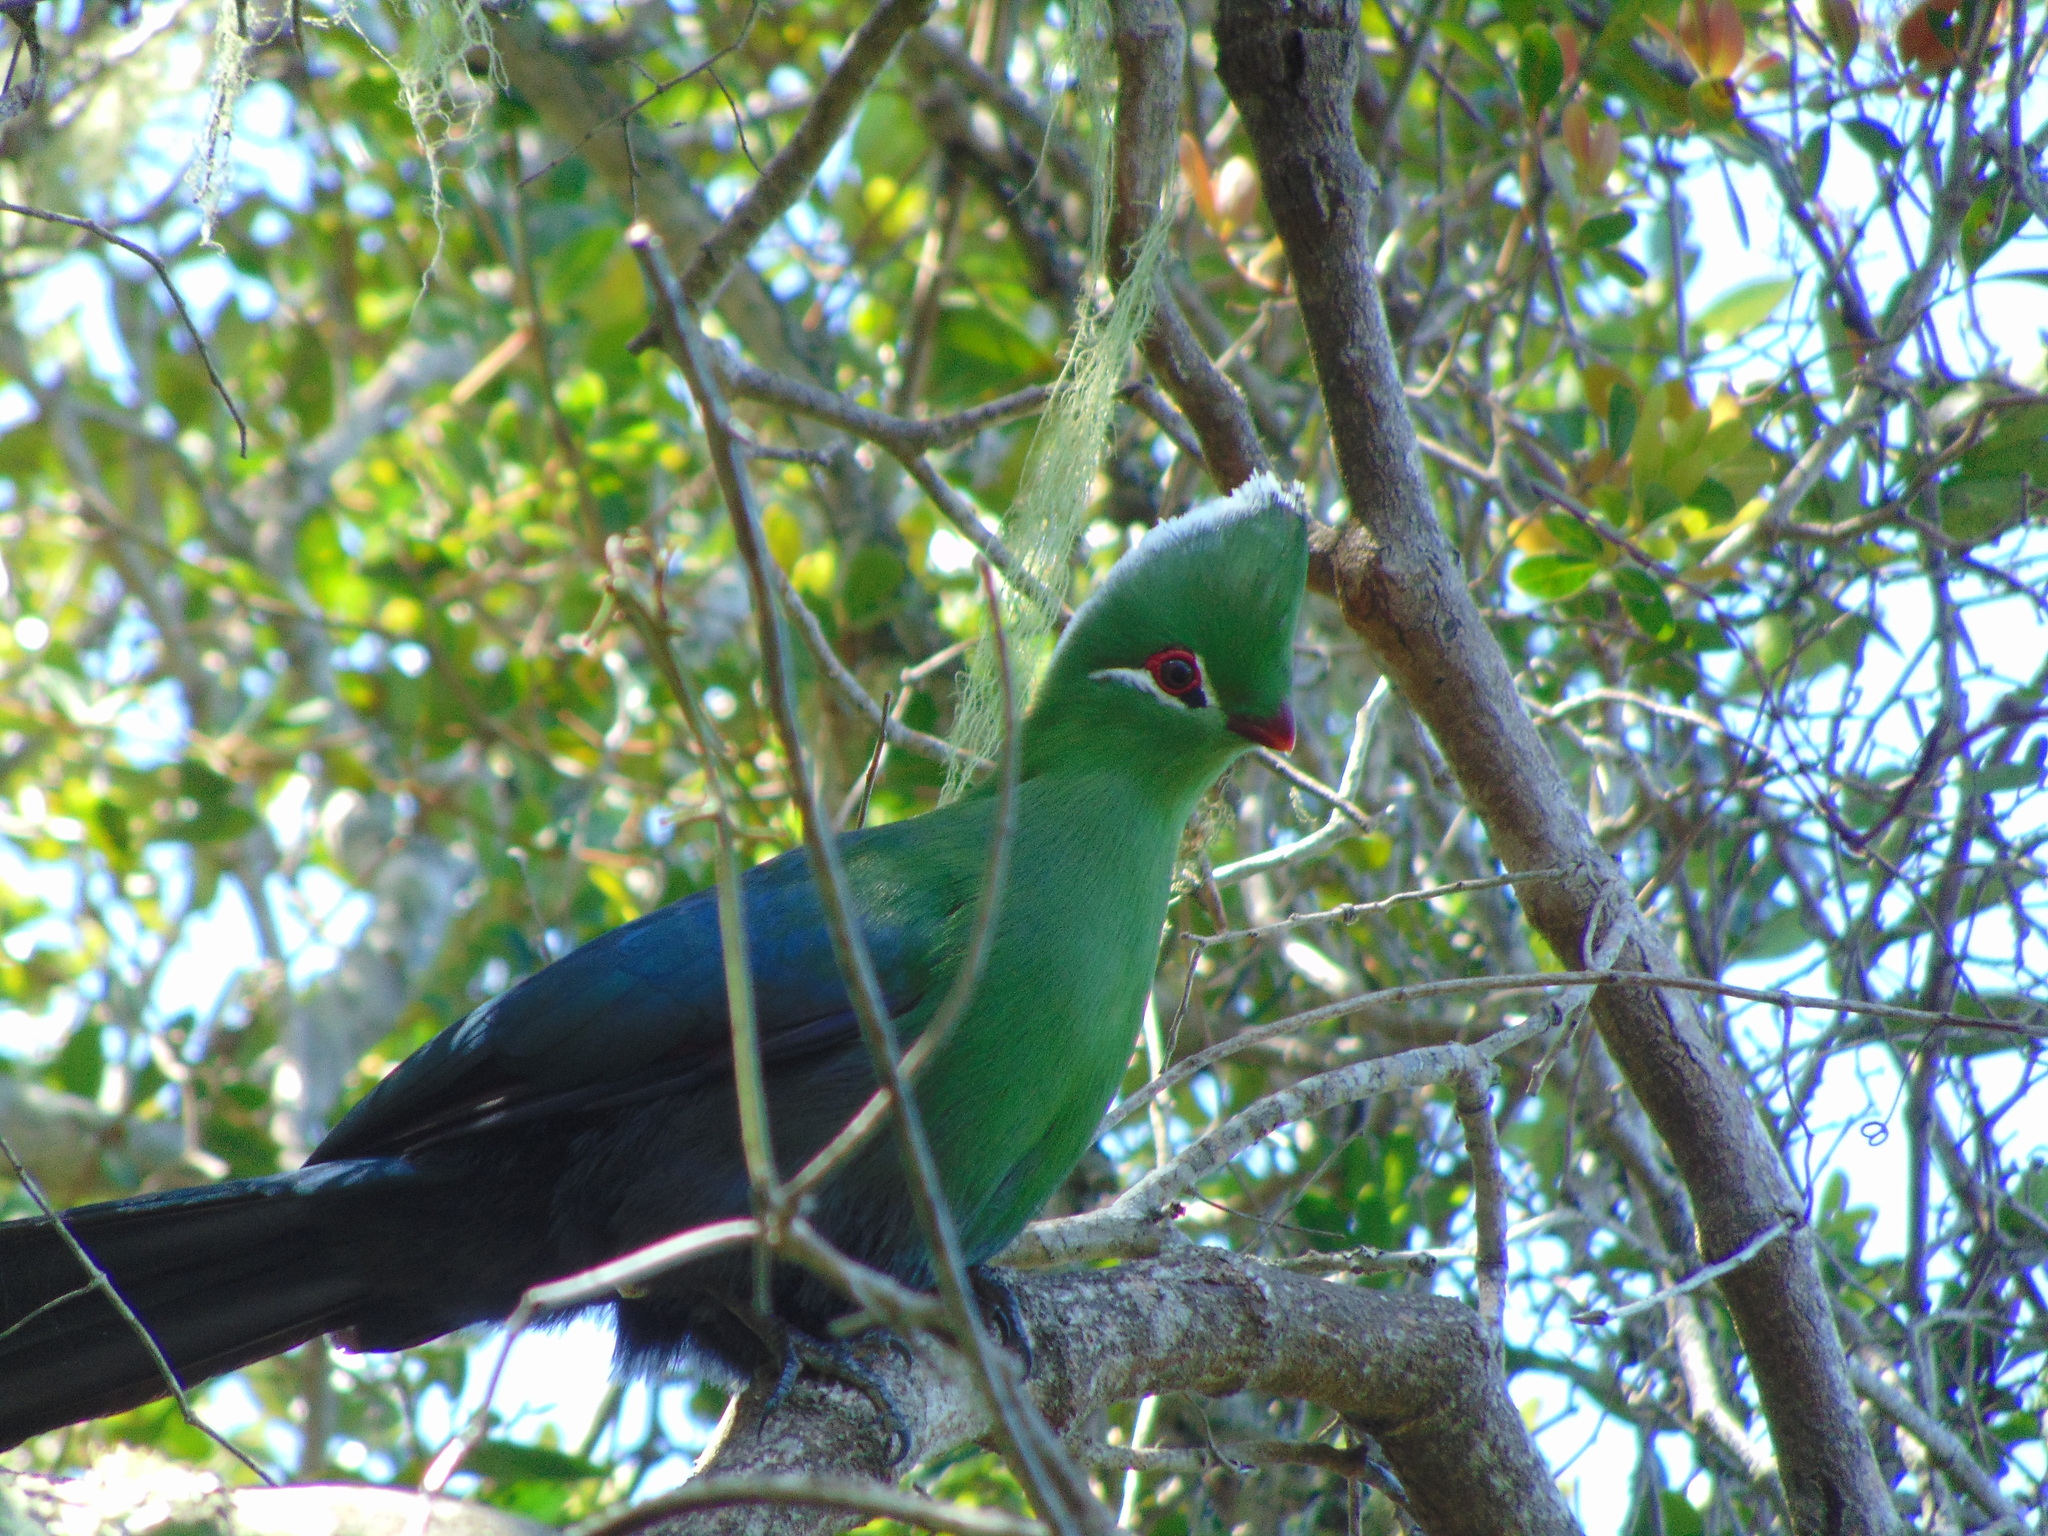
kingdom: Animalia
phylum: Chordata
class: Aves
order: Musophagiformes
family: Musophagidae
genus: Tauraco
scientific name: Tauraco corythaix
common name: Knysna turaco
